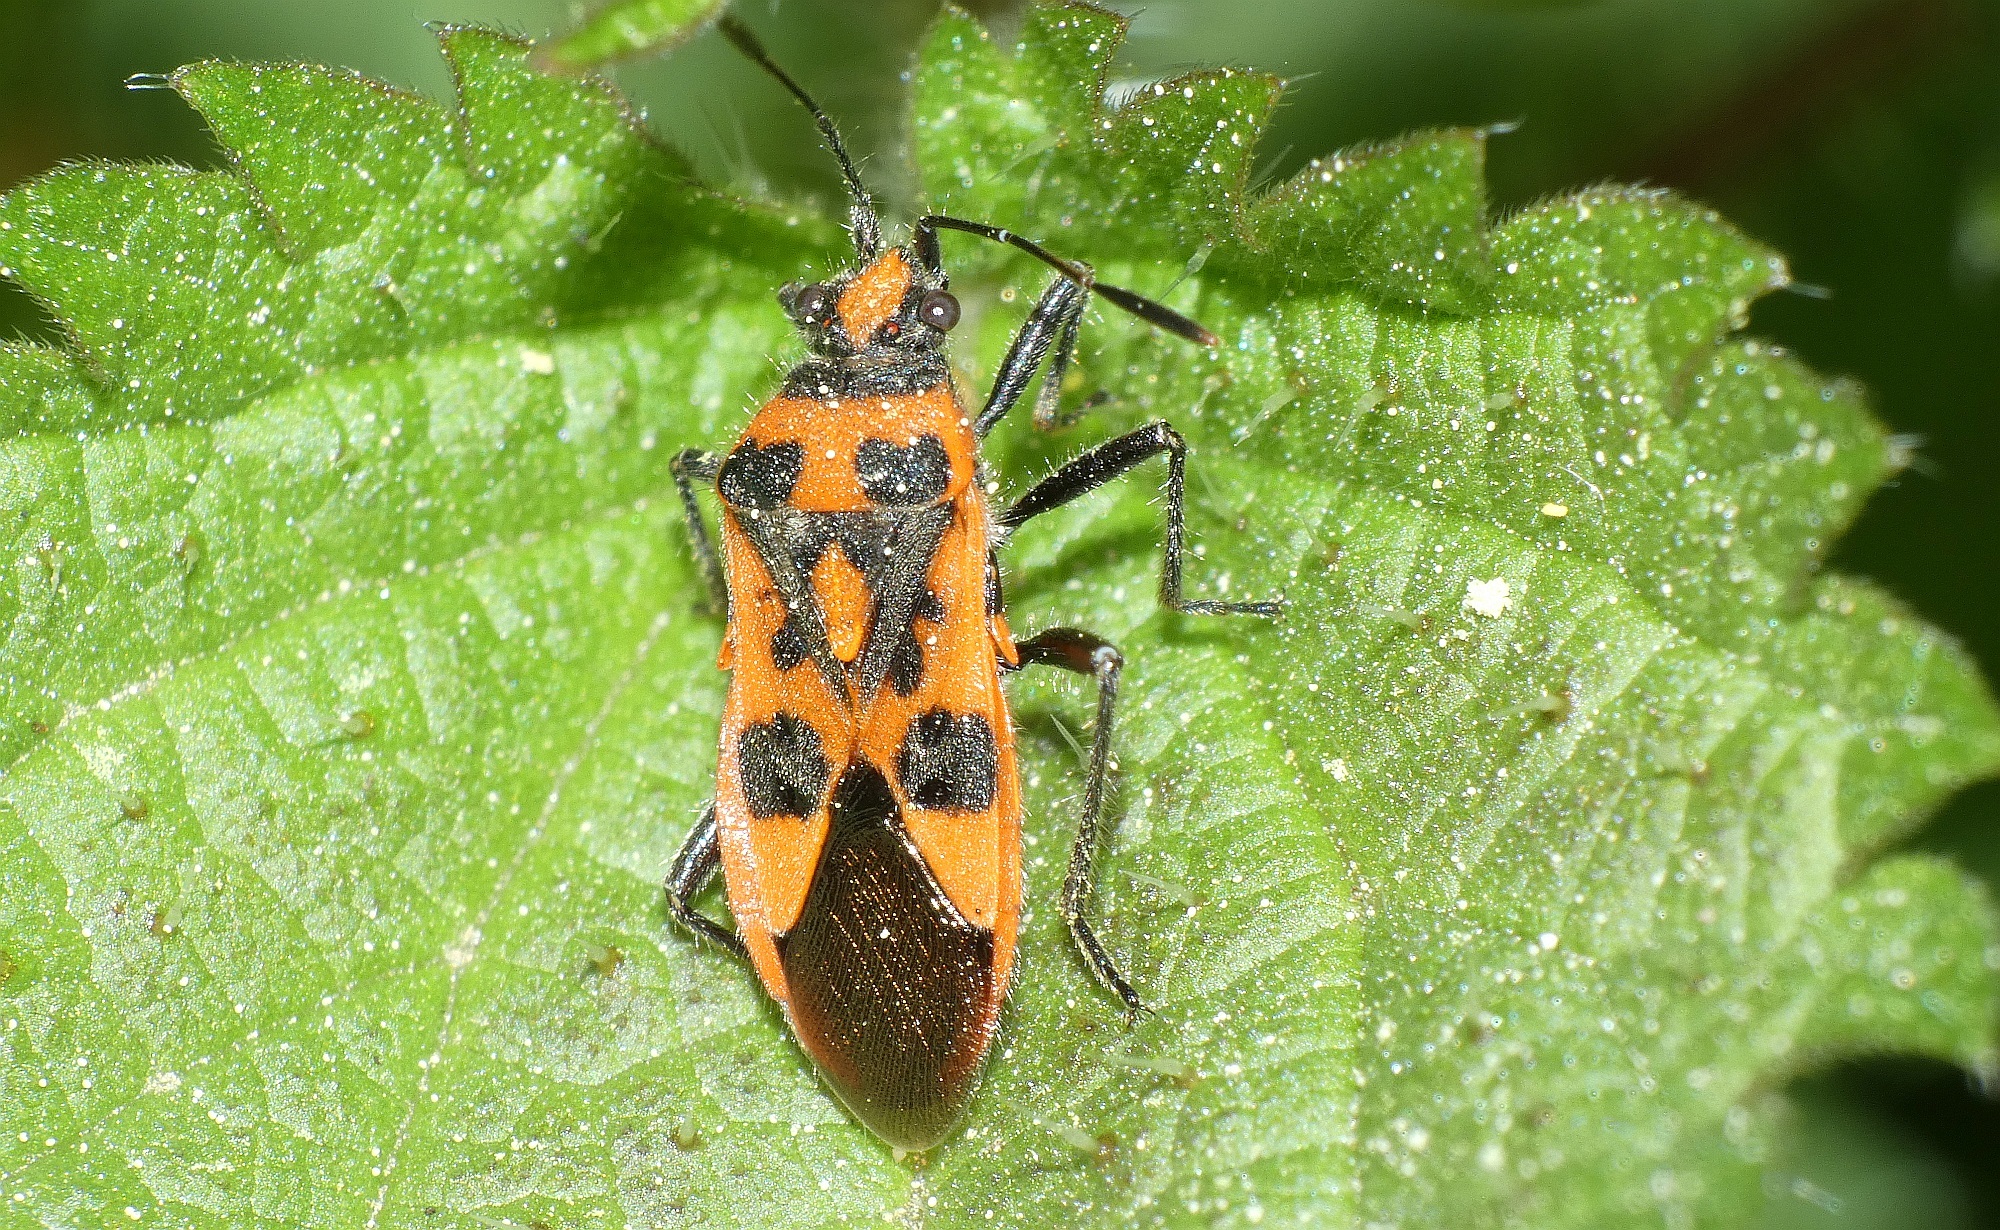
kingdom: Animalia
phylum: Arthropoda
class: Insecta
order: Hemiptera
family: Rhopalidae
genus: Corizus
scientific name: Corizus hyoscyami
